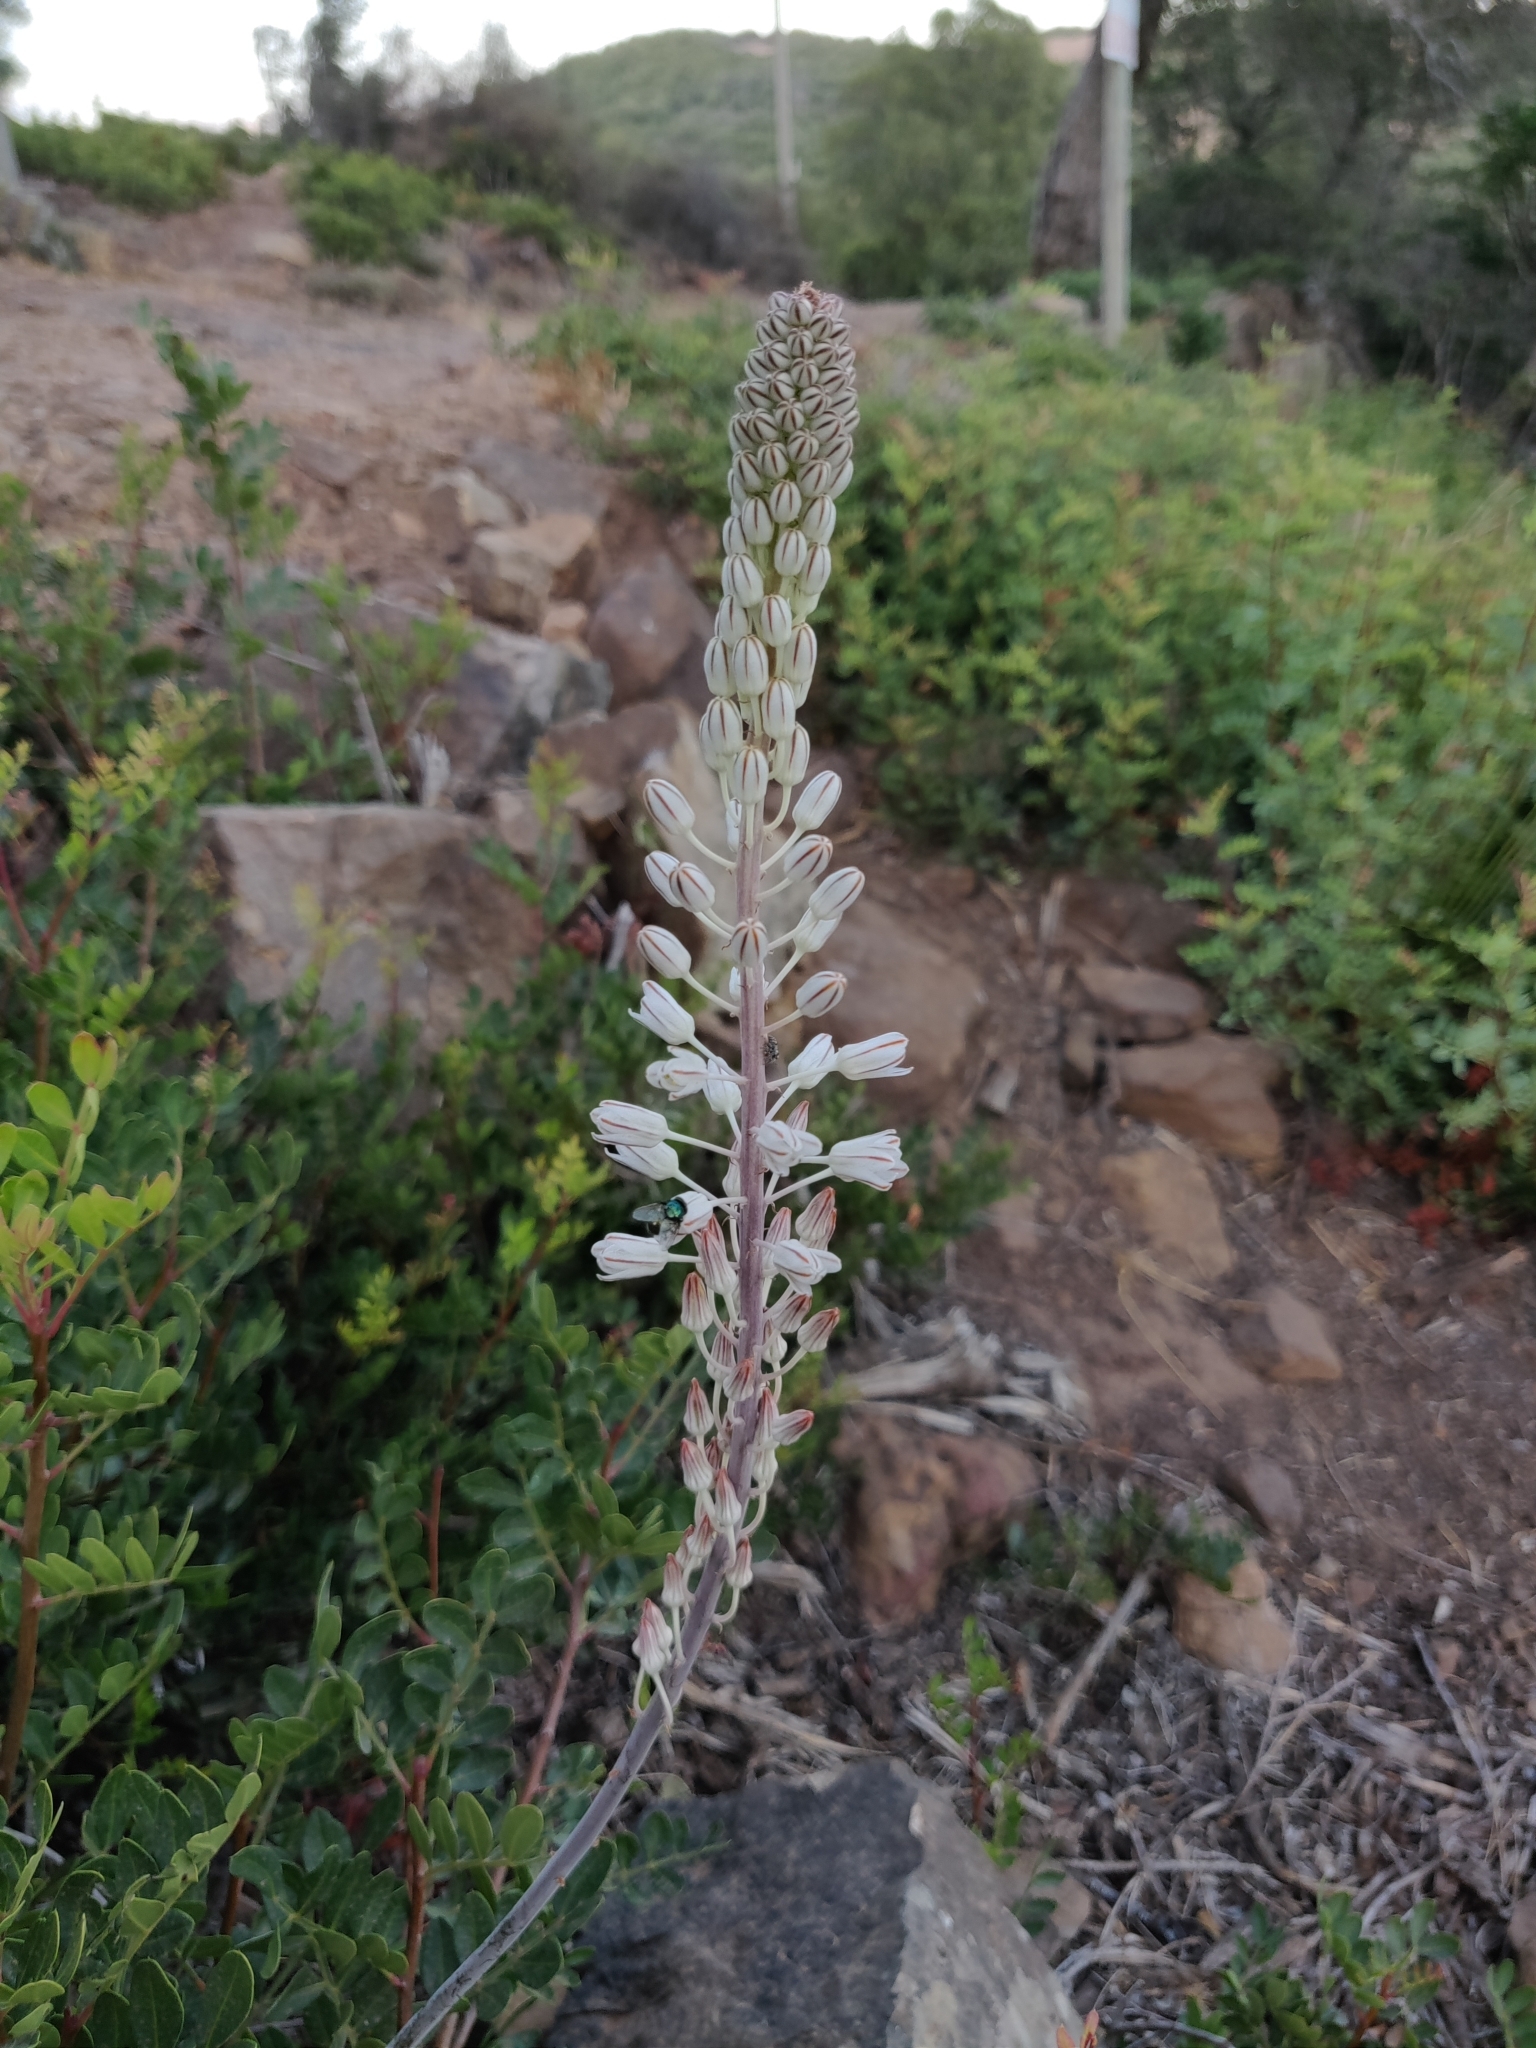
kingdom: Plantae
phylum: Tracheophyta
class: Liliopsida
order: Asparagales
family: Asparagaceae
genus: Drimia
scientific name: Drimia maritima
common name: Maritime squill
